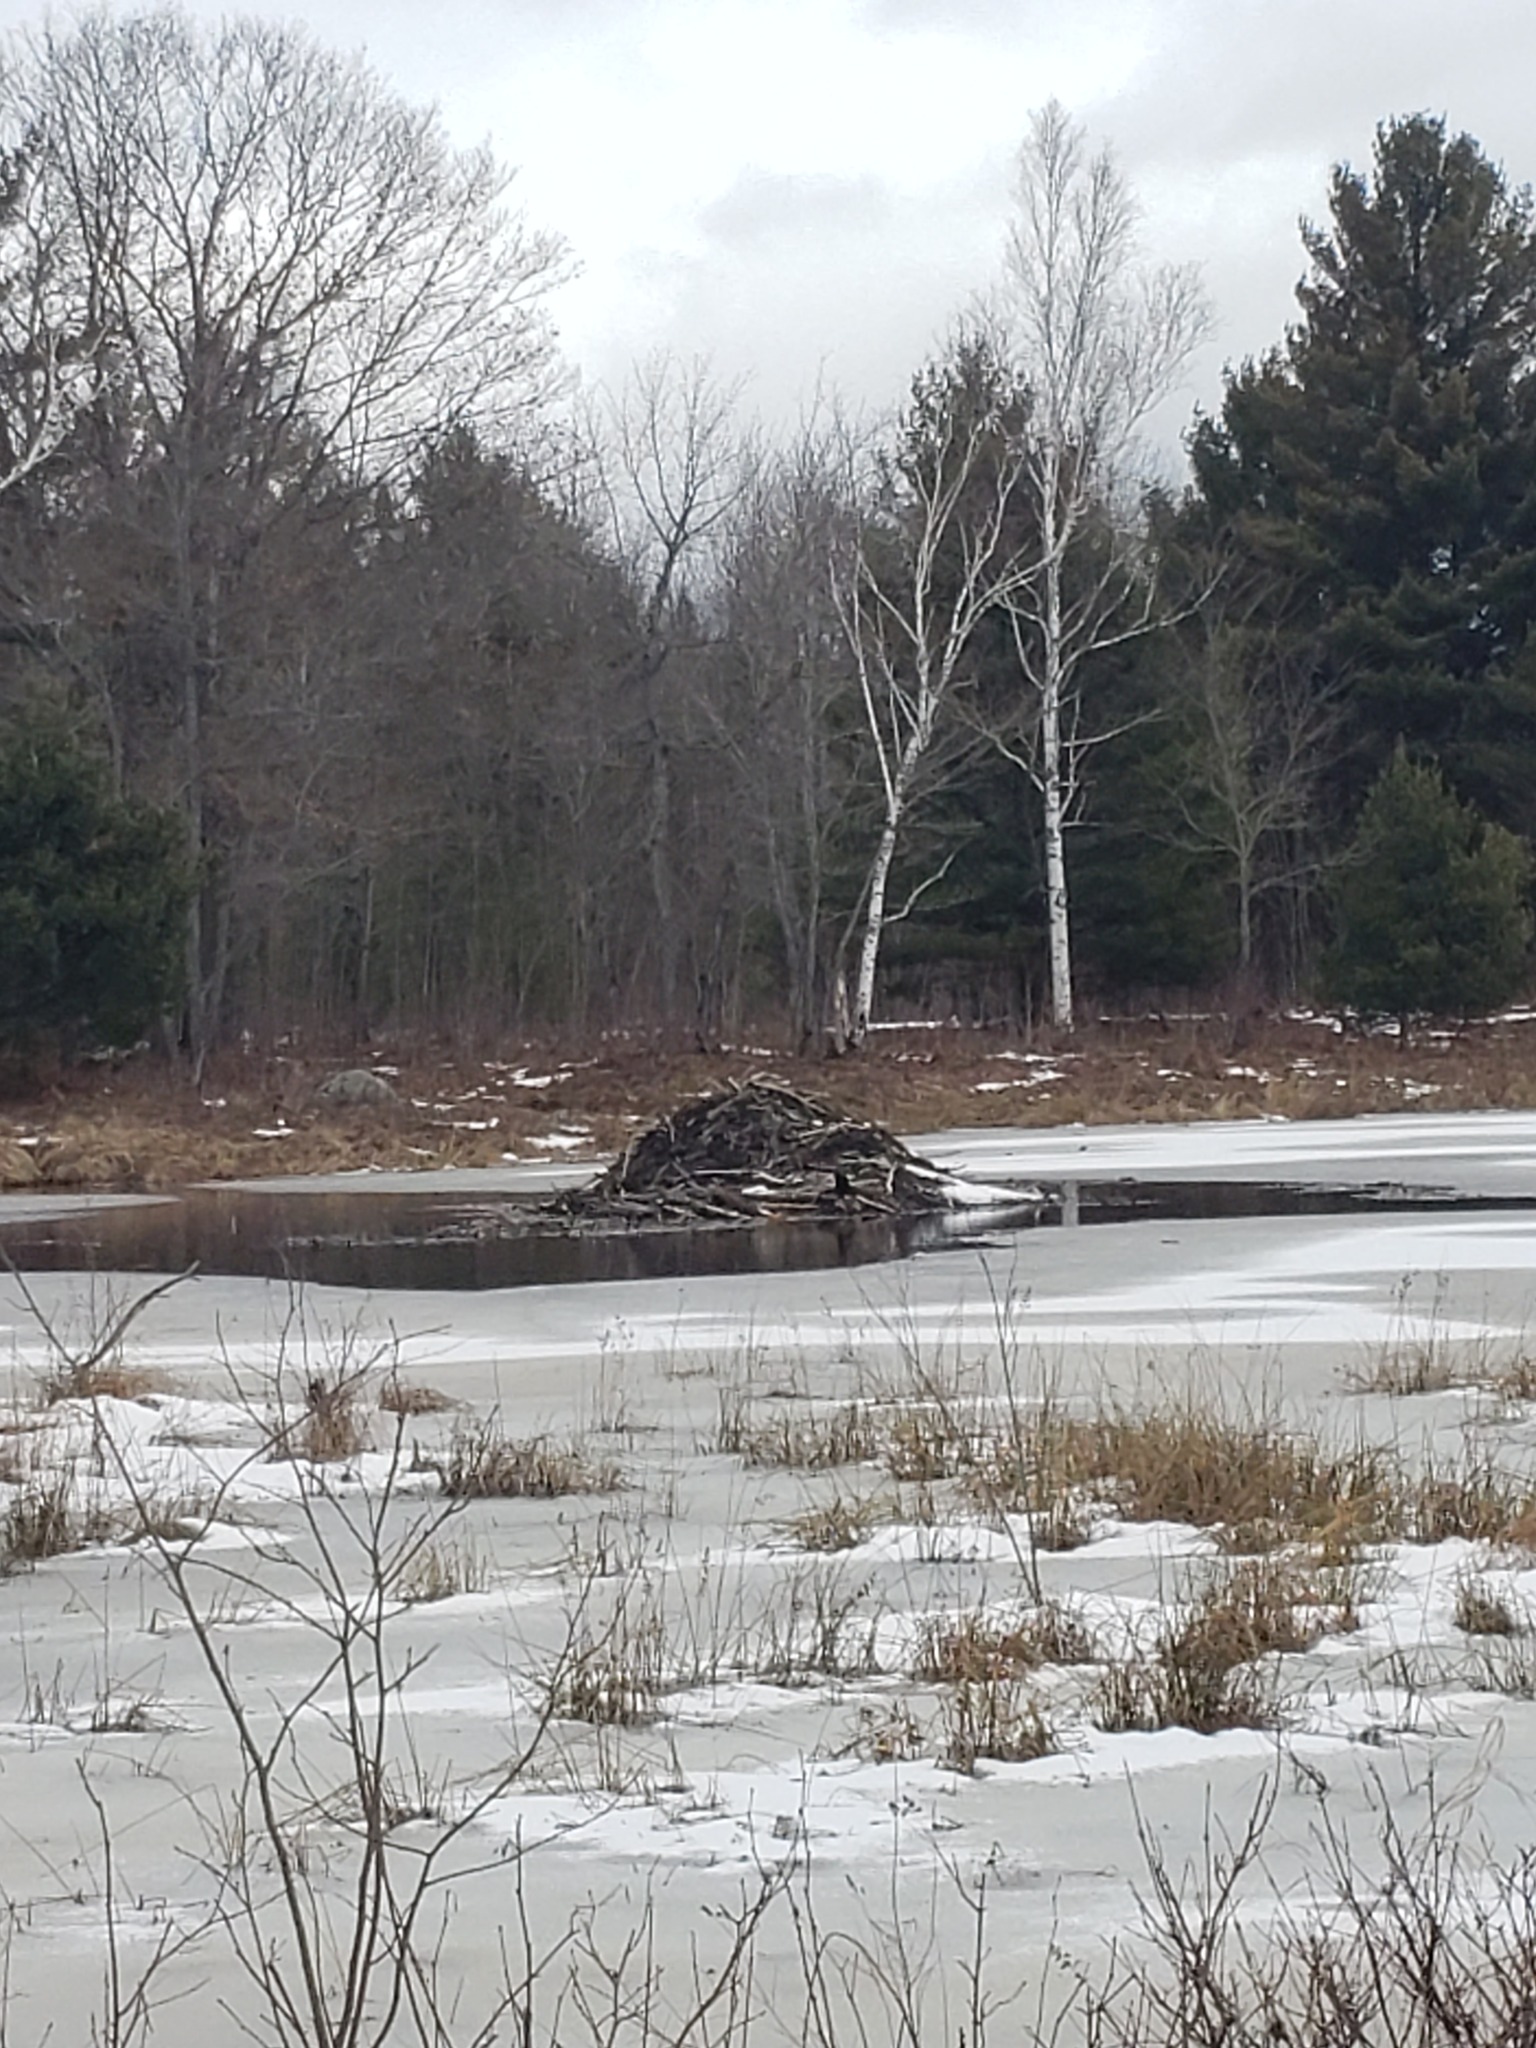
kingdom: Animalia
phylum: Chordata
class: Mammalia
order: Rodentia
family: Castoridae
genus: Castor
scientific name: Castor canadensis
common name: American beaver
